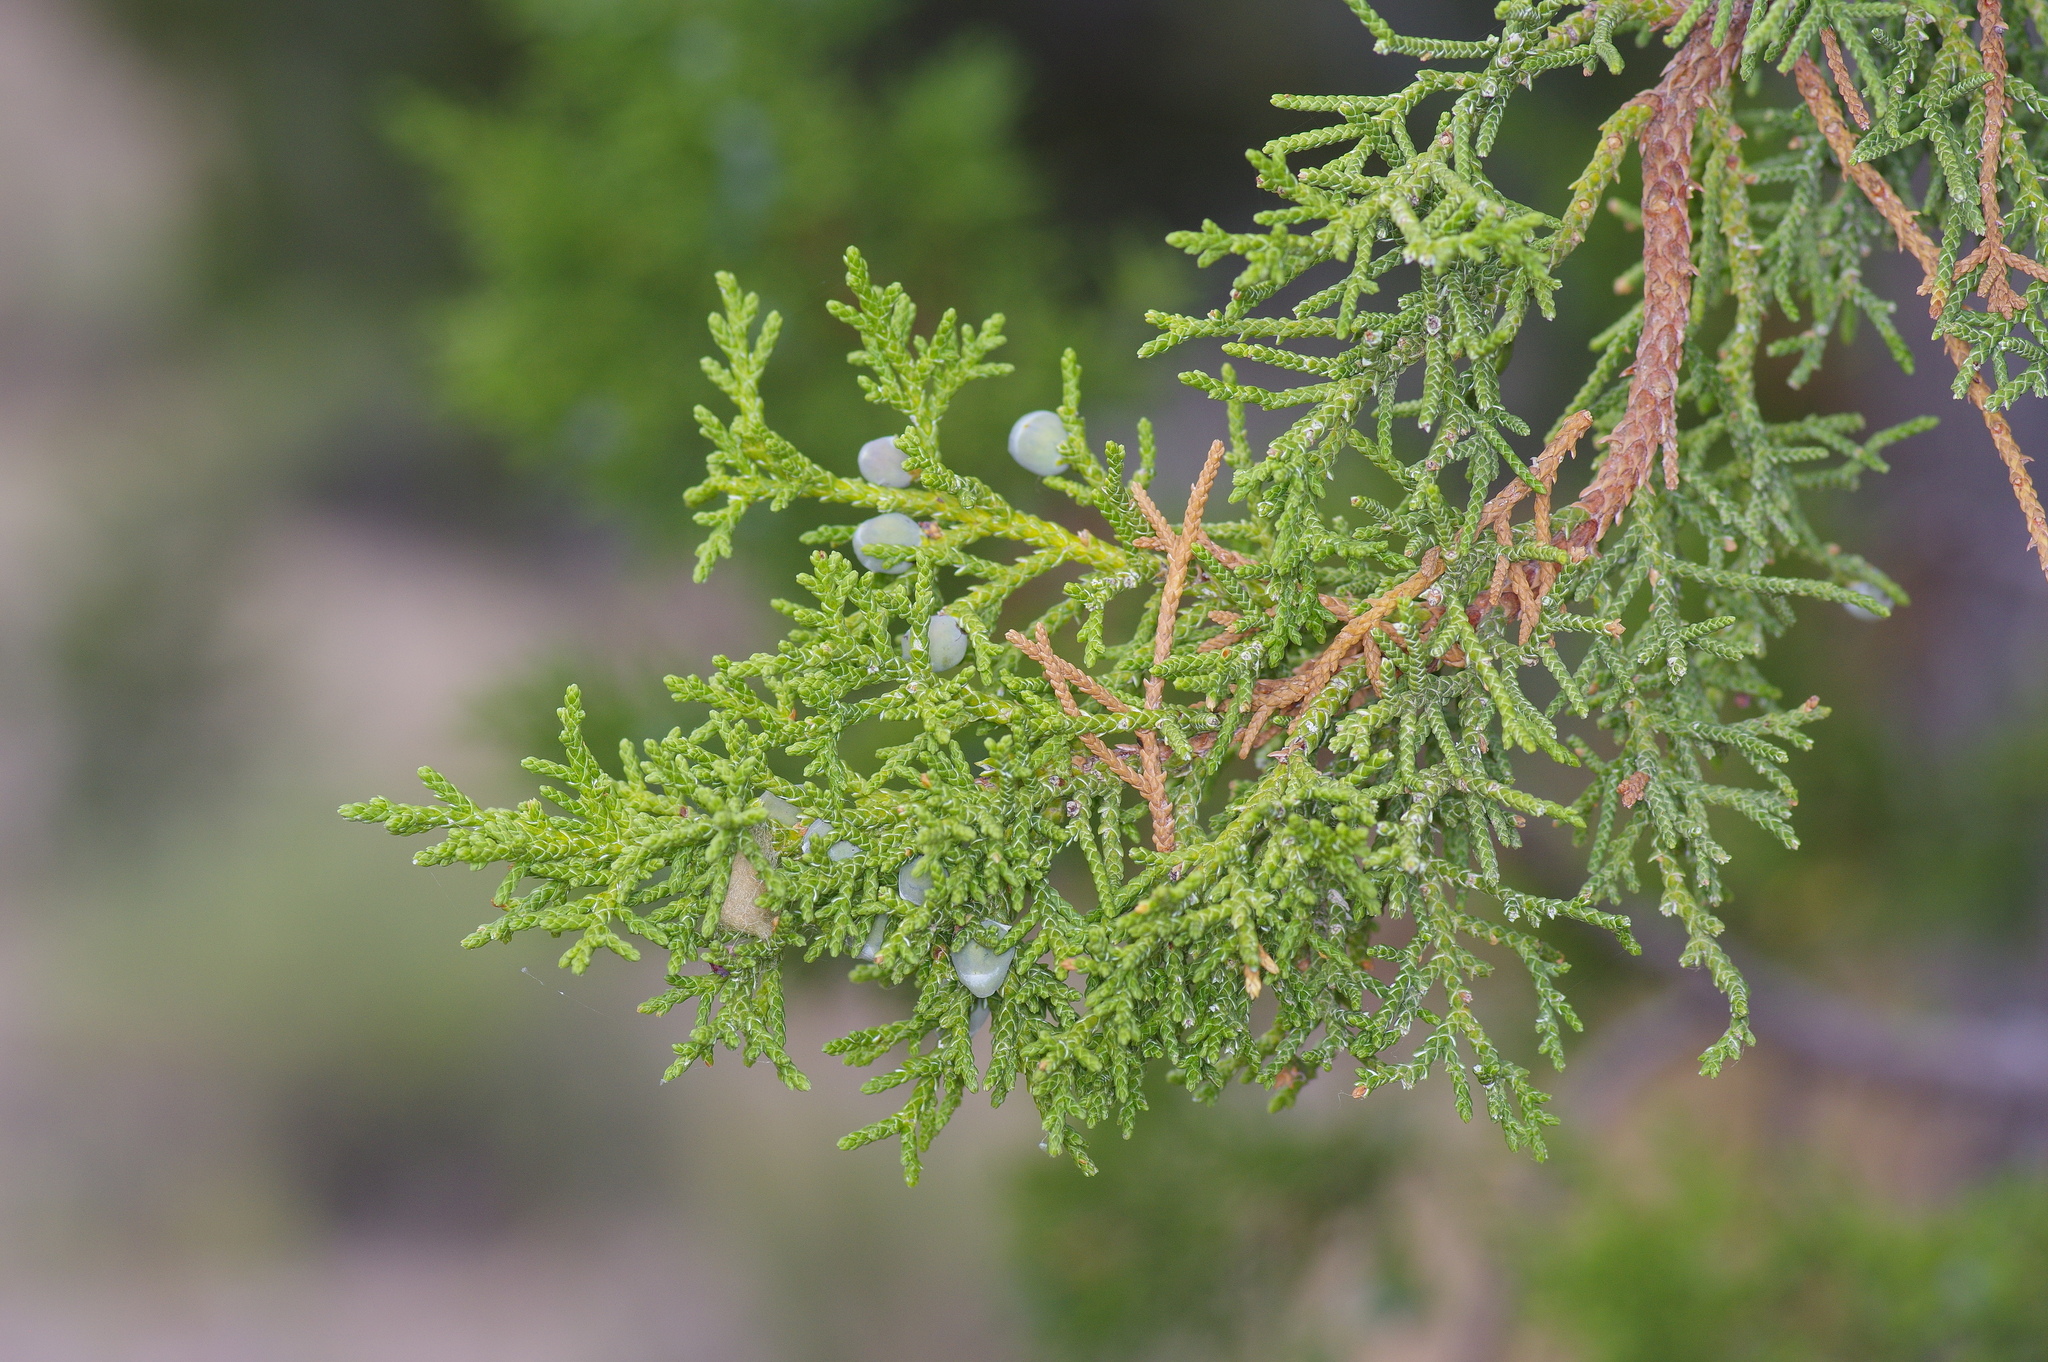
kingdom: Plantae
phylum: Tracheophyta
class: Pinopsida
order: Pinales
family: Cupressaceae
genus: Juniperus
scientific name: Juniperus monosperma
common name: One-seed juniper
